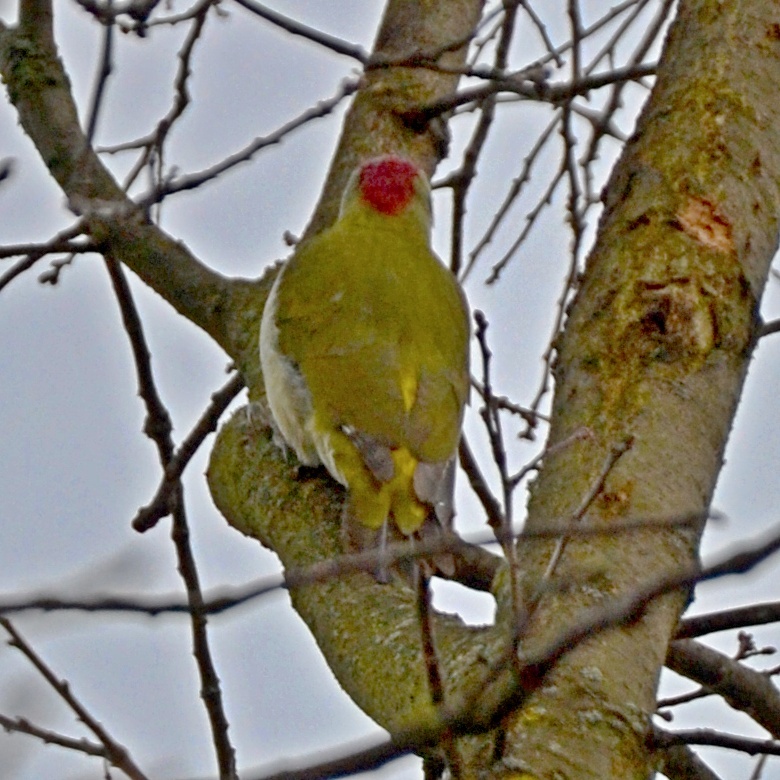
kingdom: Animalia
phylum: Chordata
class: Aves
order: Piciformes
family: Picidae
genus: Picus
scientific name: Picus viridis
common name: European green woodpecker
